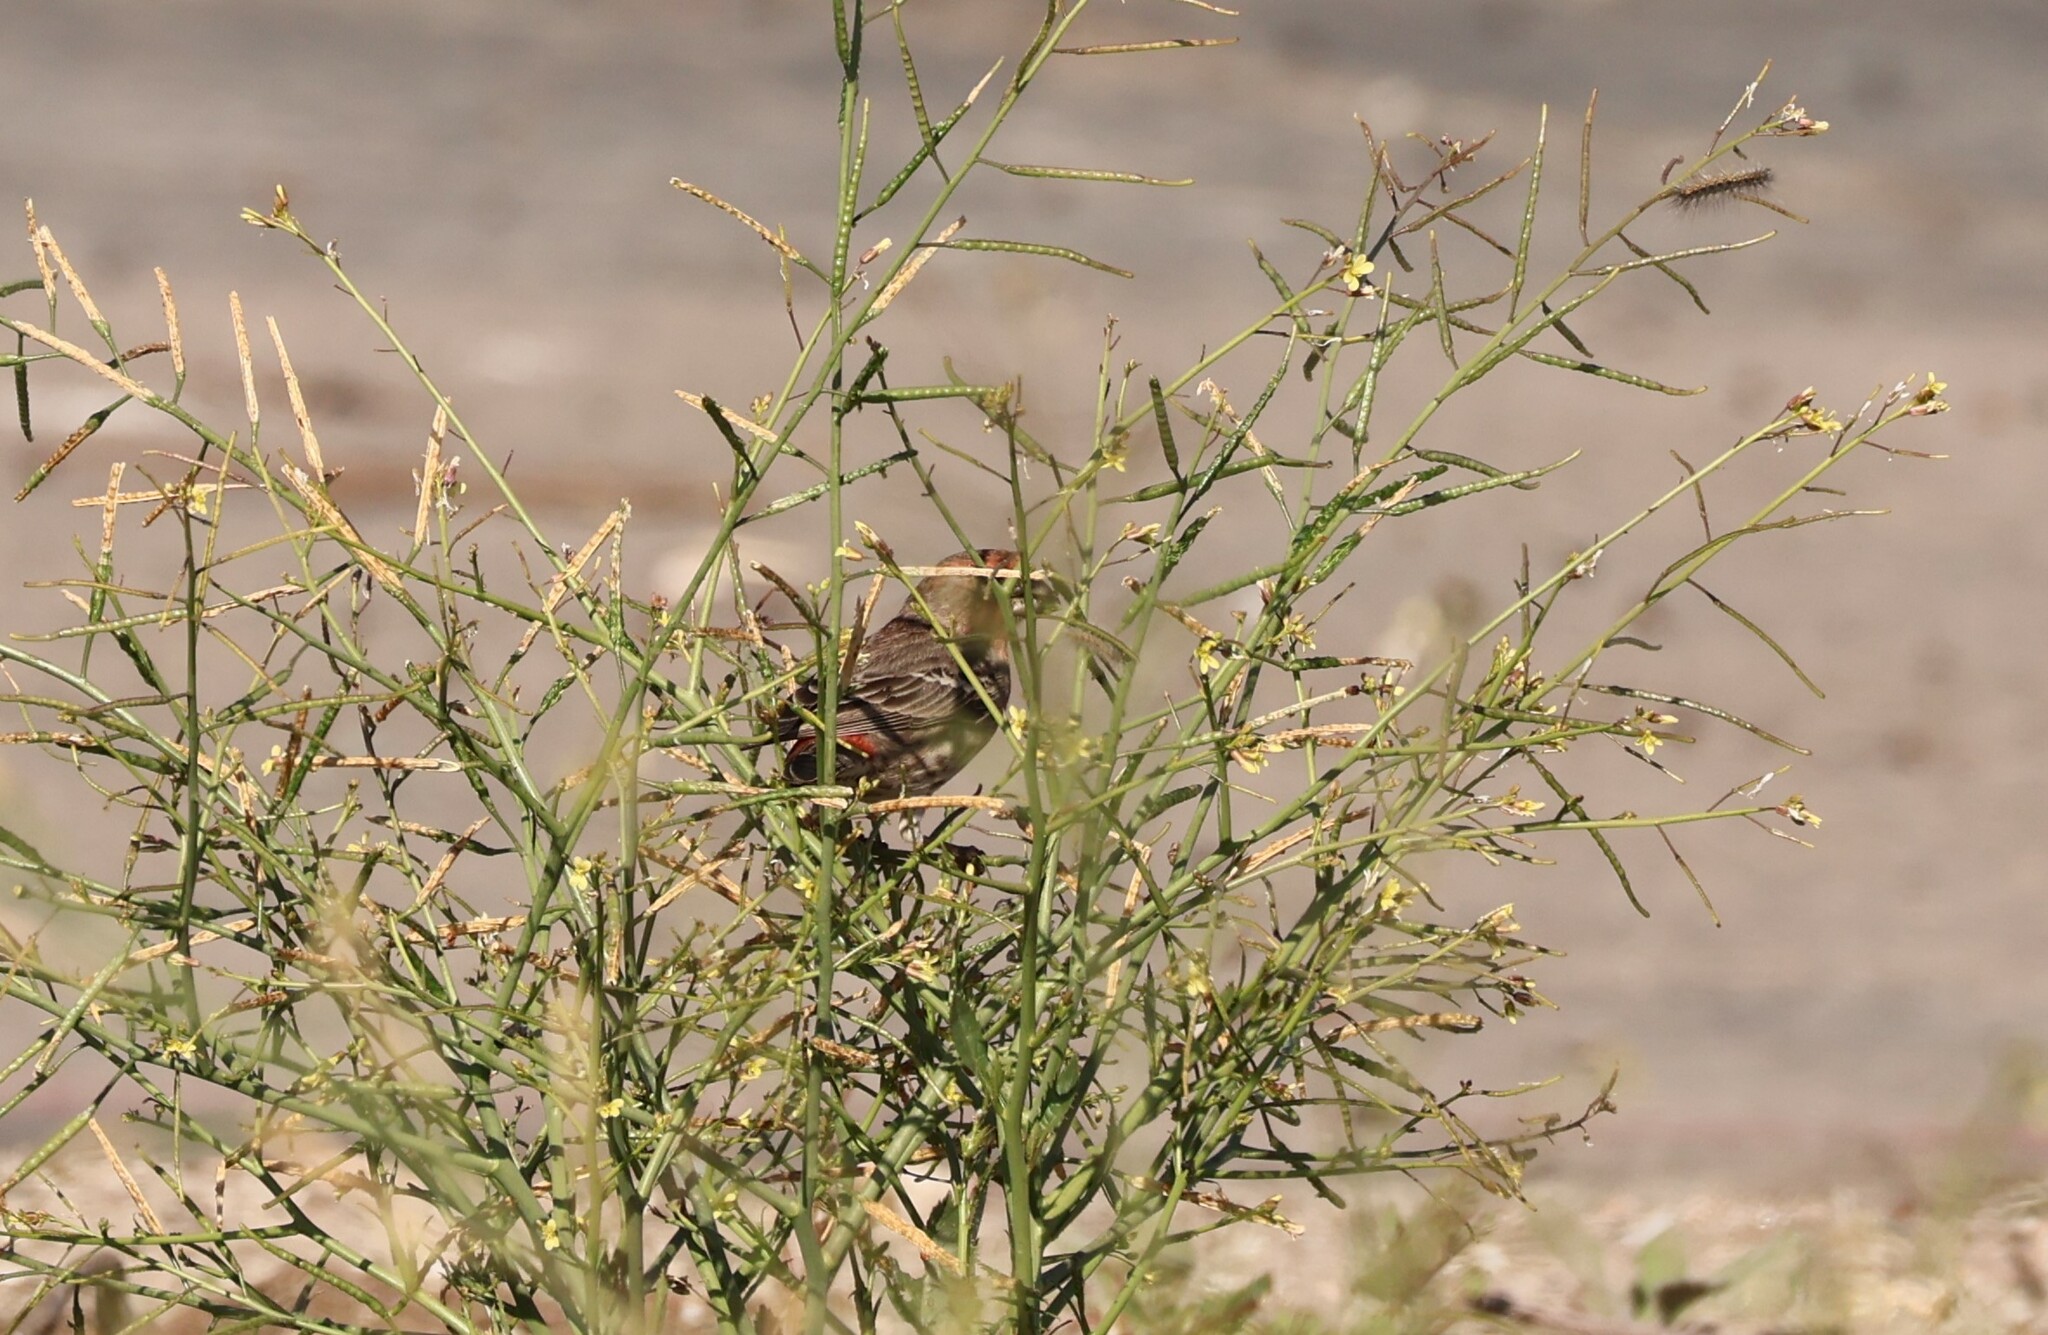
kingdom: Animalia
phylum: Chordata
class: Aves
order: Passeriformes
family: Fringillidae
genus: Haemorhous
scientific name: Haemorhous mexicanus
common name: House finch
